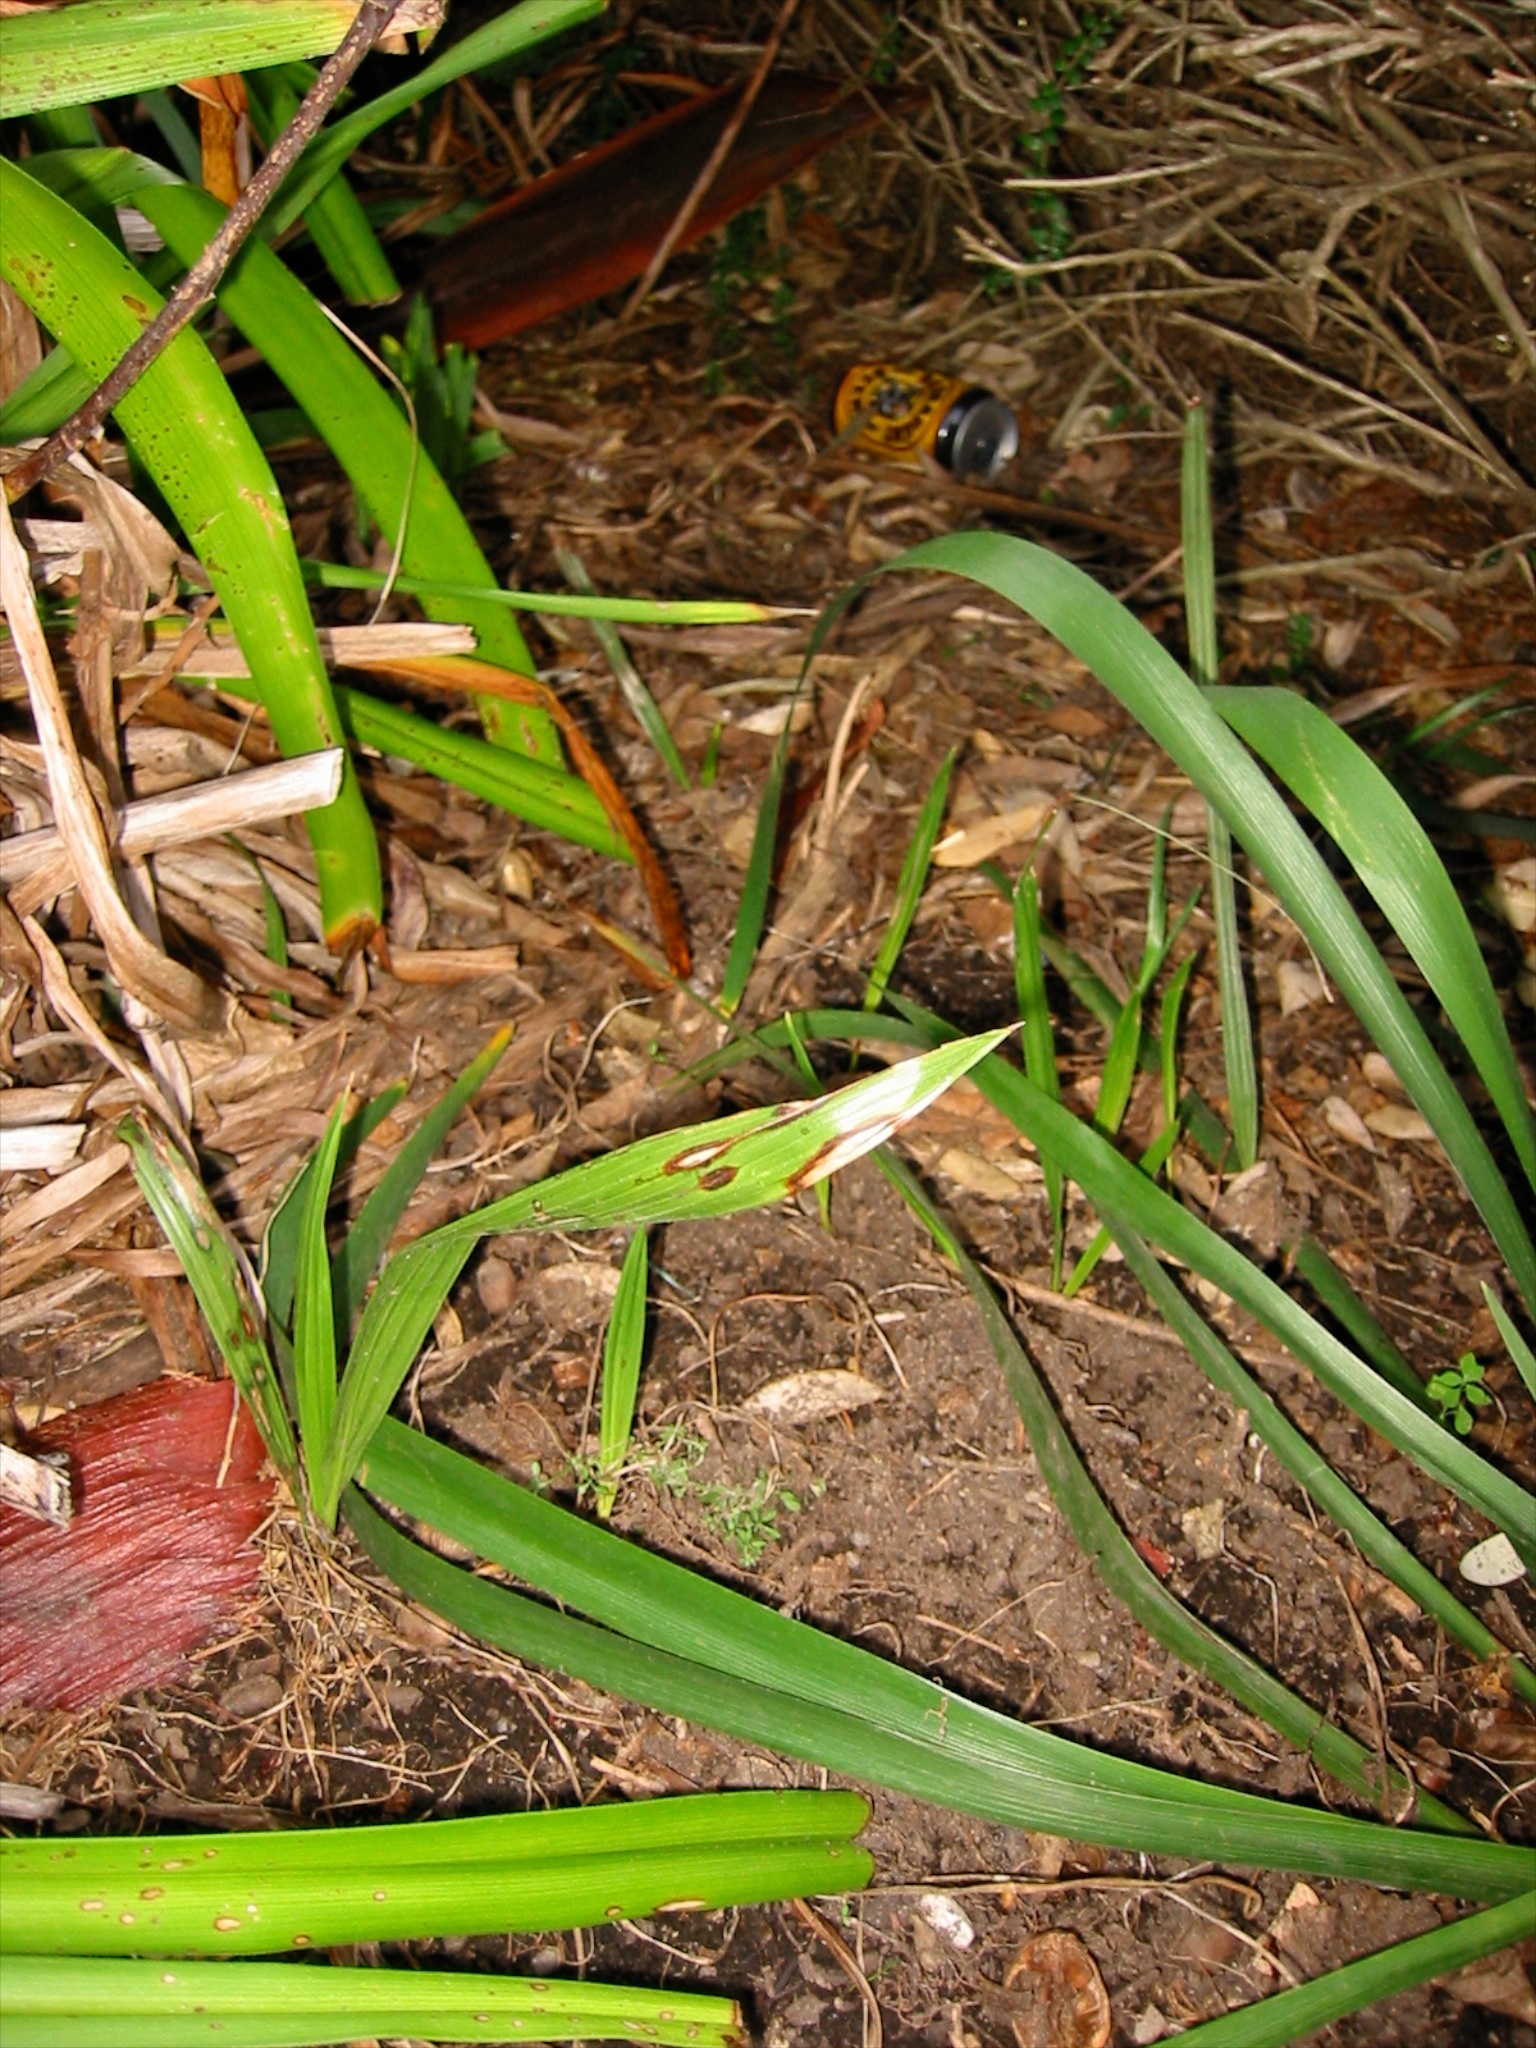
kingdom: Plantae
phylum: Tracheophyta
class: Liliopsida
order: Arecales
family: Arecaceae
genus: Phoenix
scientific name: Phoenix canariensis
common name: Canary island date palm
